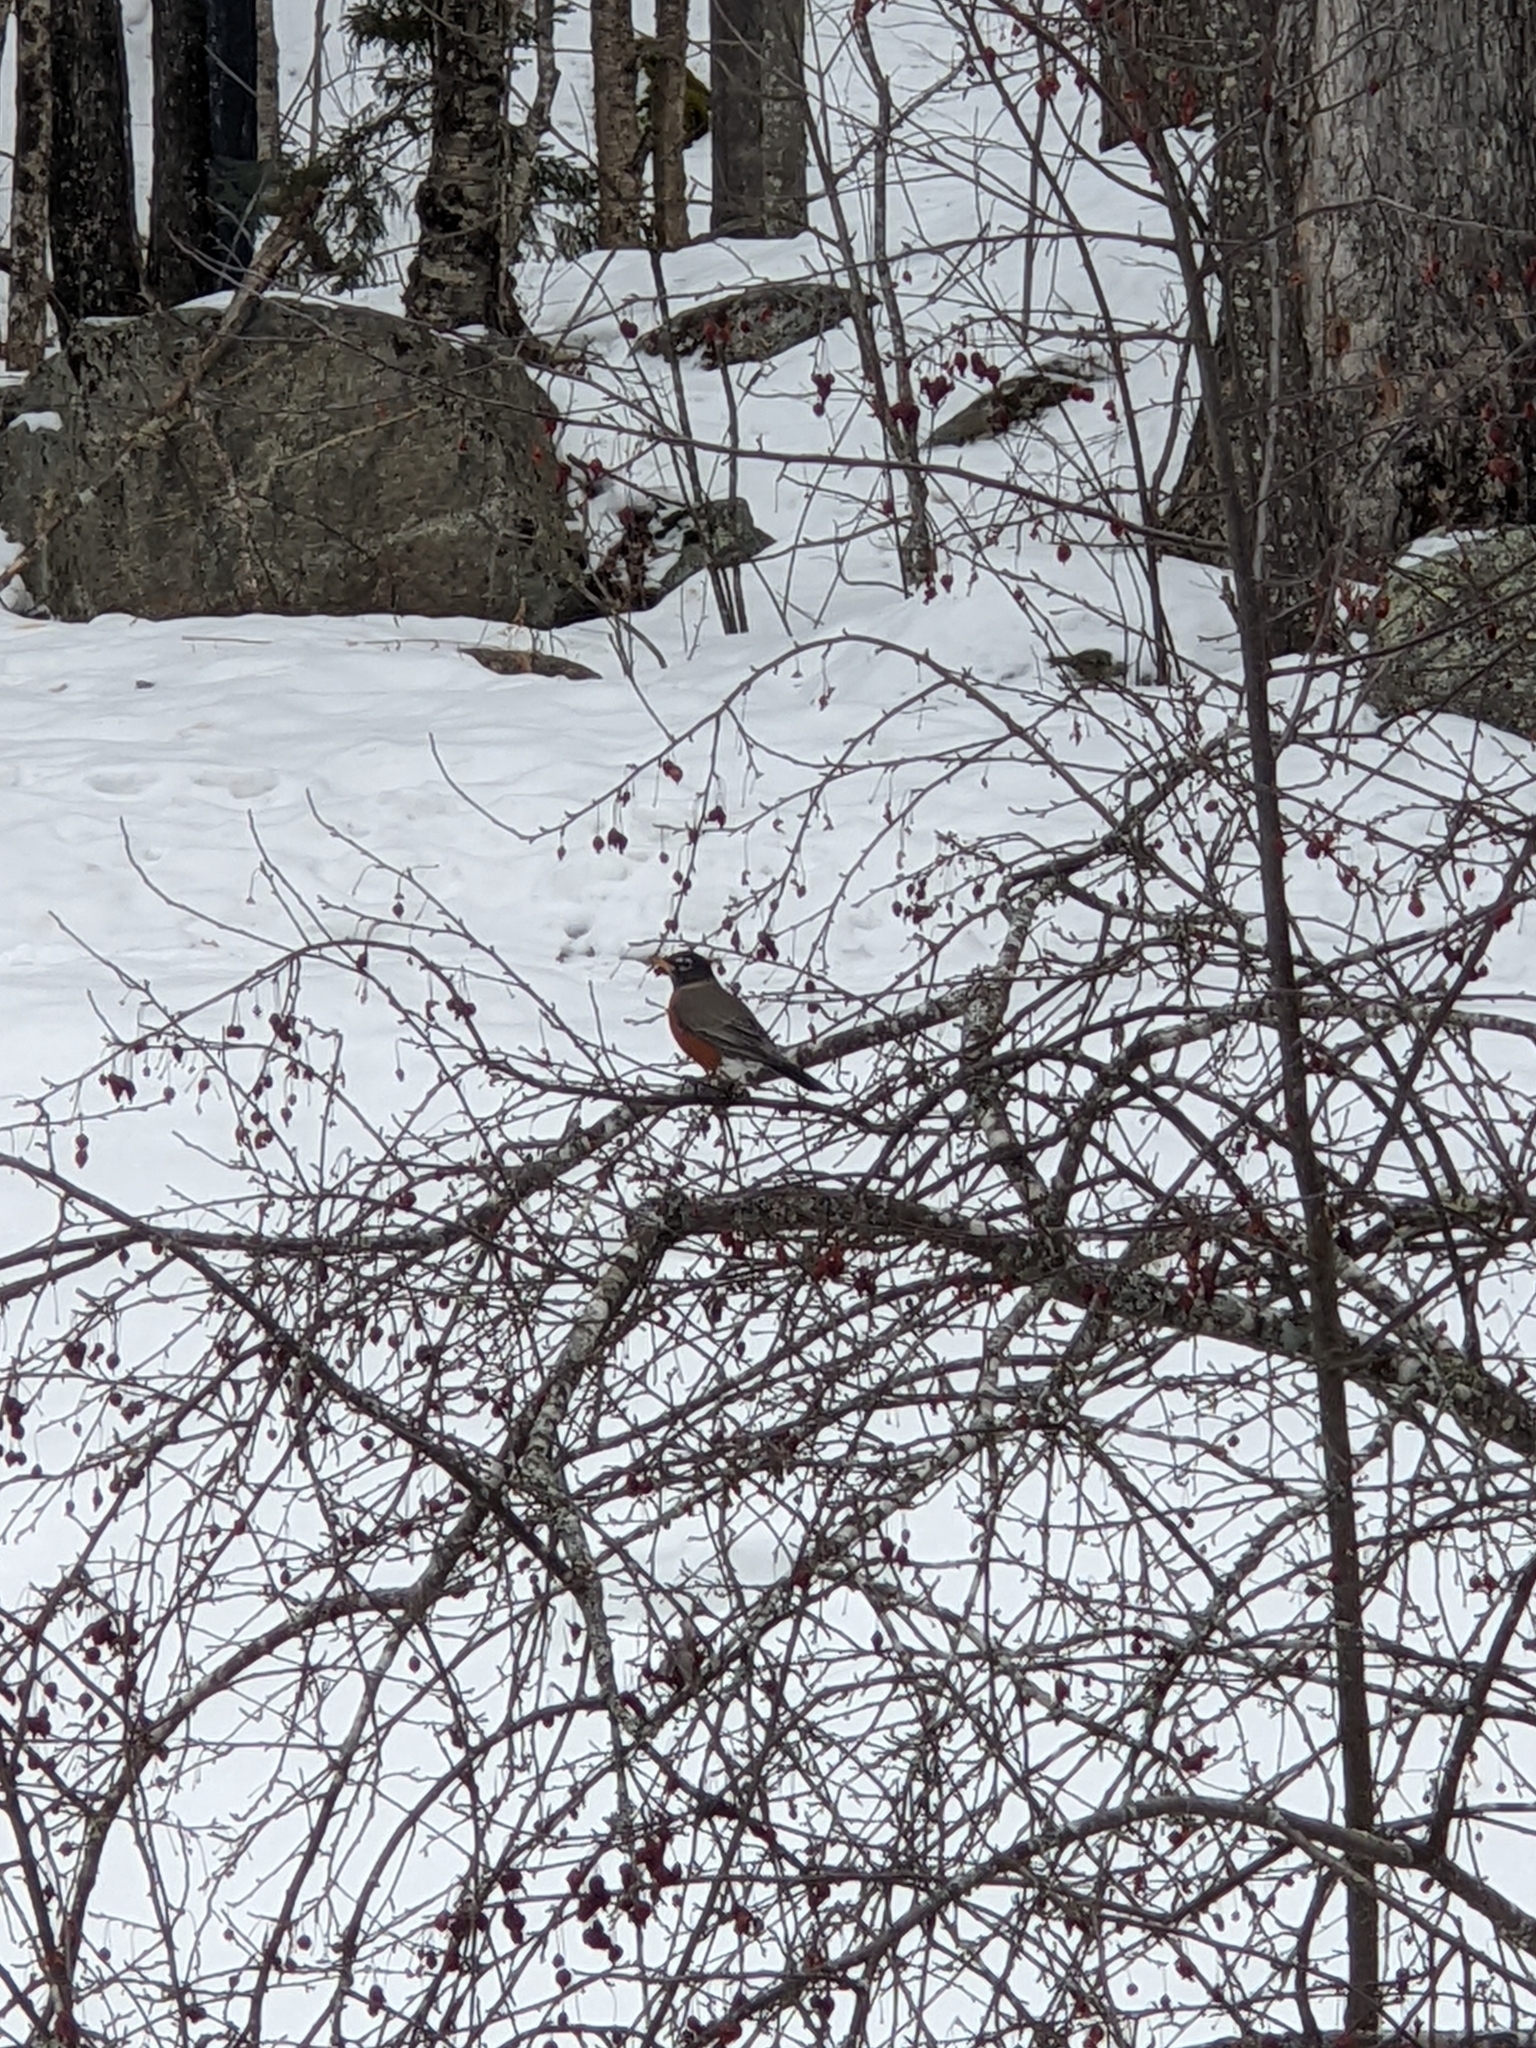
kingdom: Animalia
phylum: Chordata
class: Aves
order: Passeriformes
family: Turdidae
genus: Turdus
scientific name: Turdus migratorius
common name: American robin
